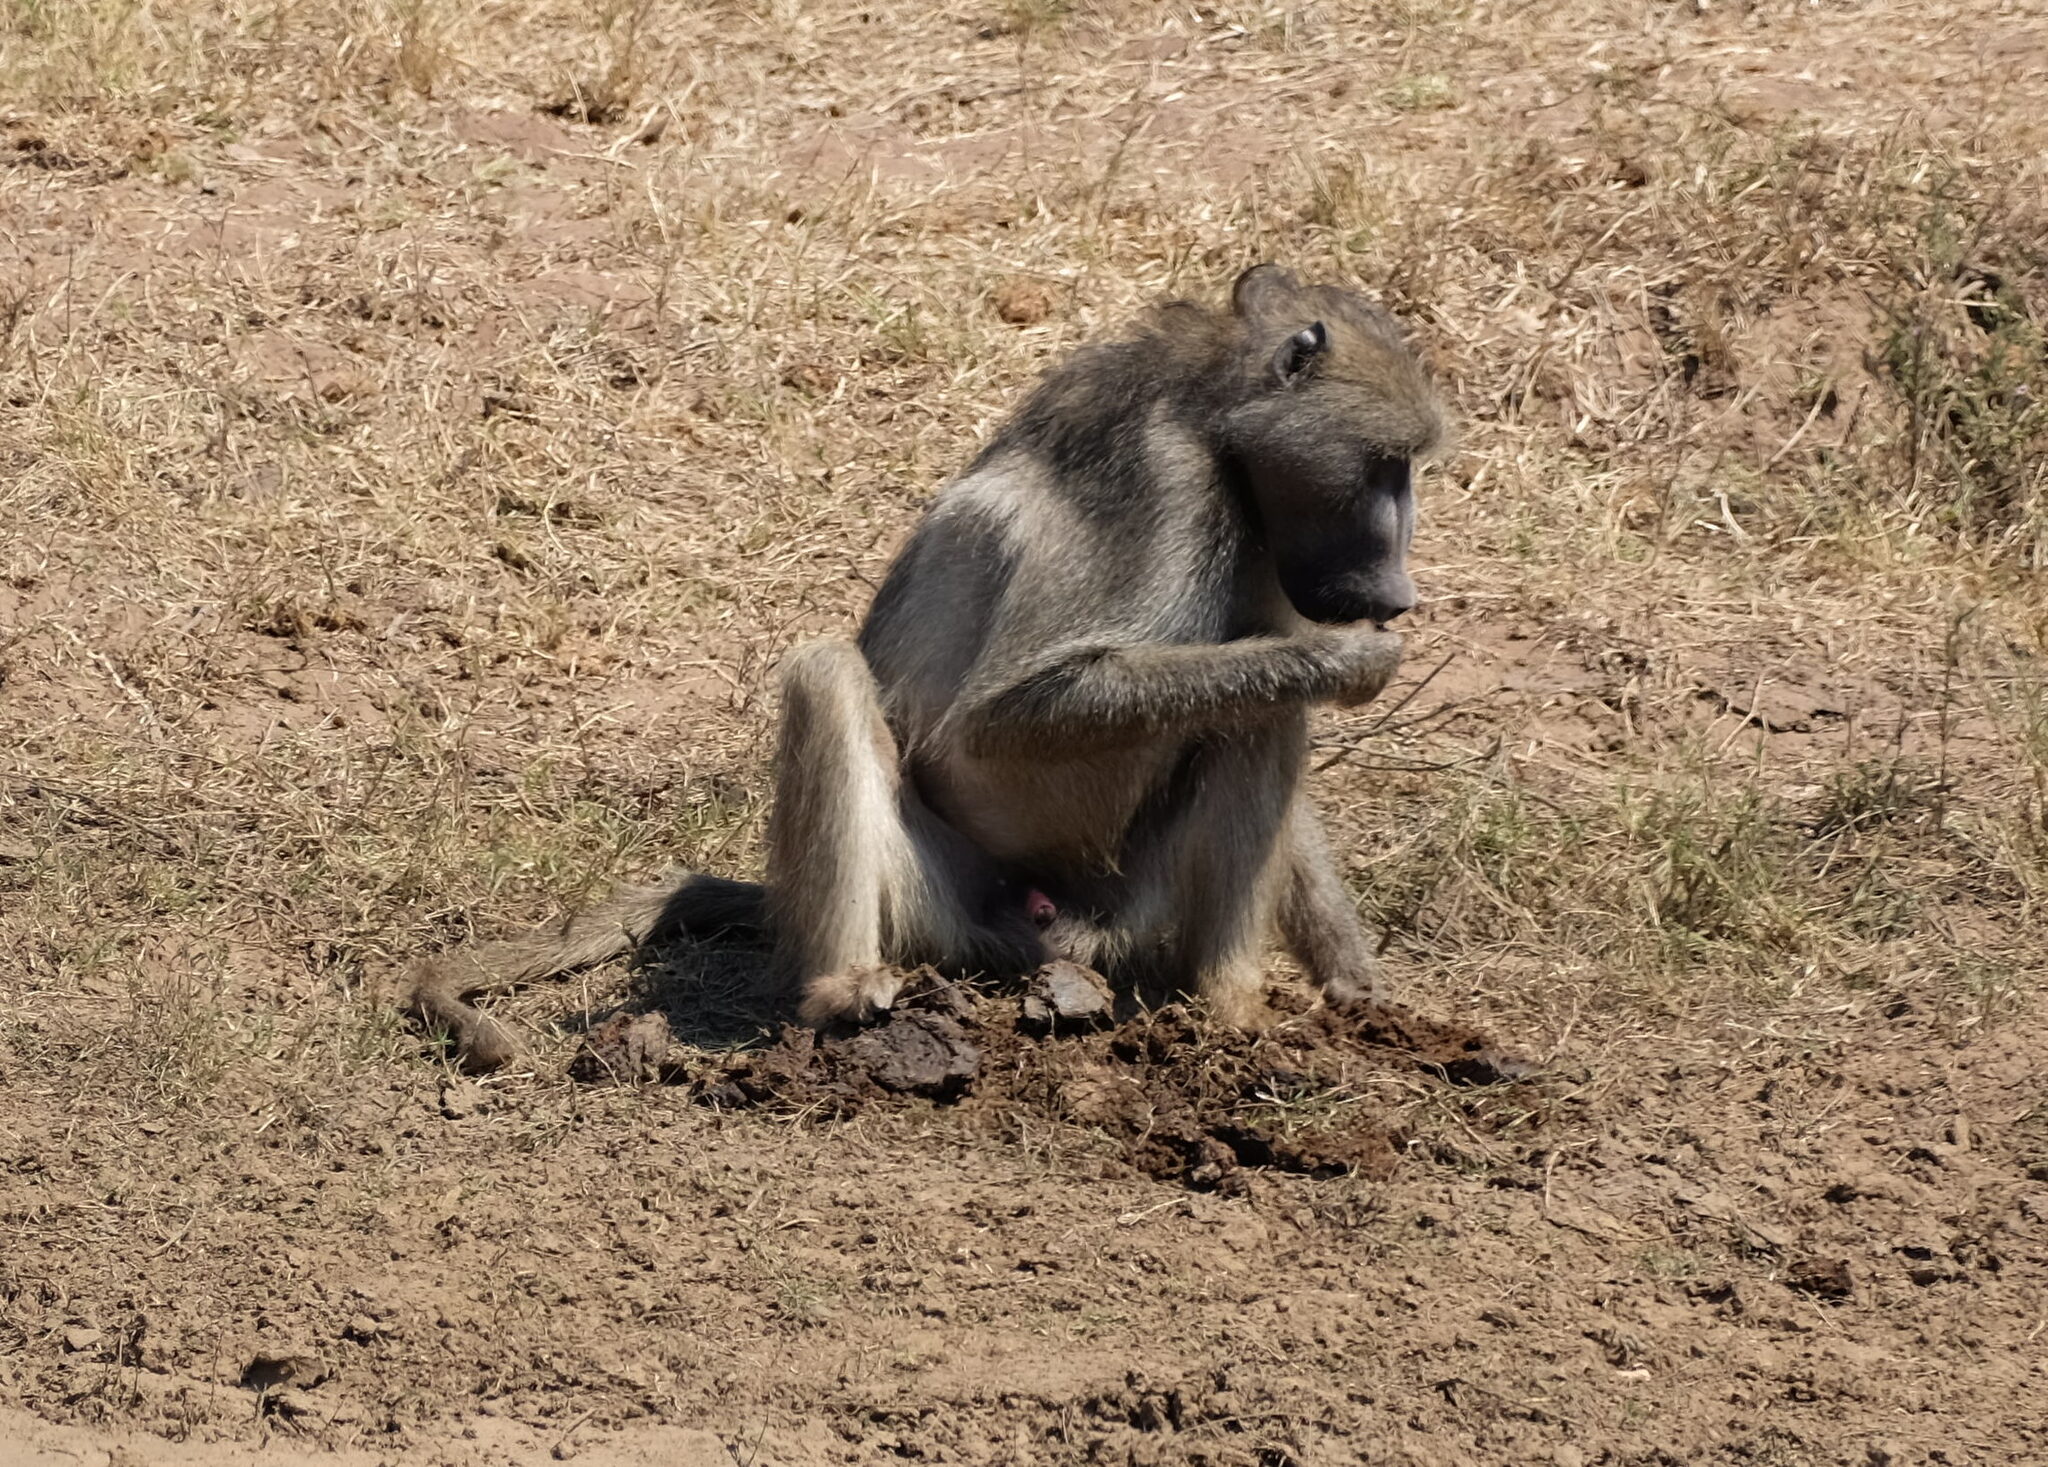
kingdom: Animalia
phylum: Chordata
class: Mammalia
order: Primates
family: Cercopithecidae
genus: Papio
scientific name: Papio ursinus
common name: Chacma baboon
